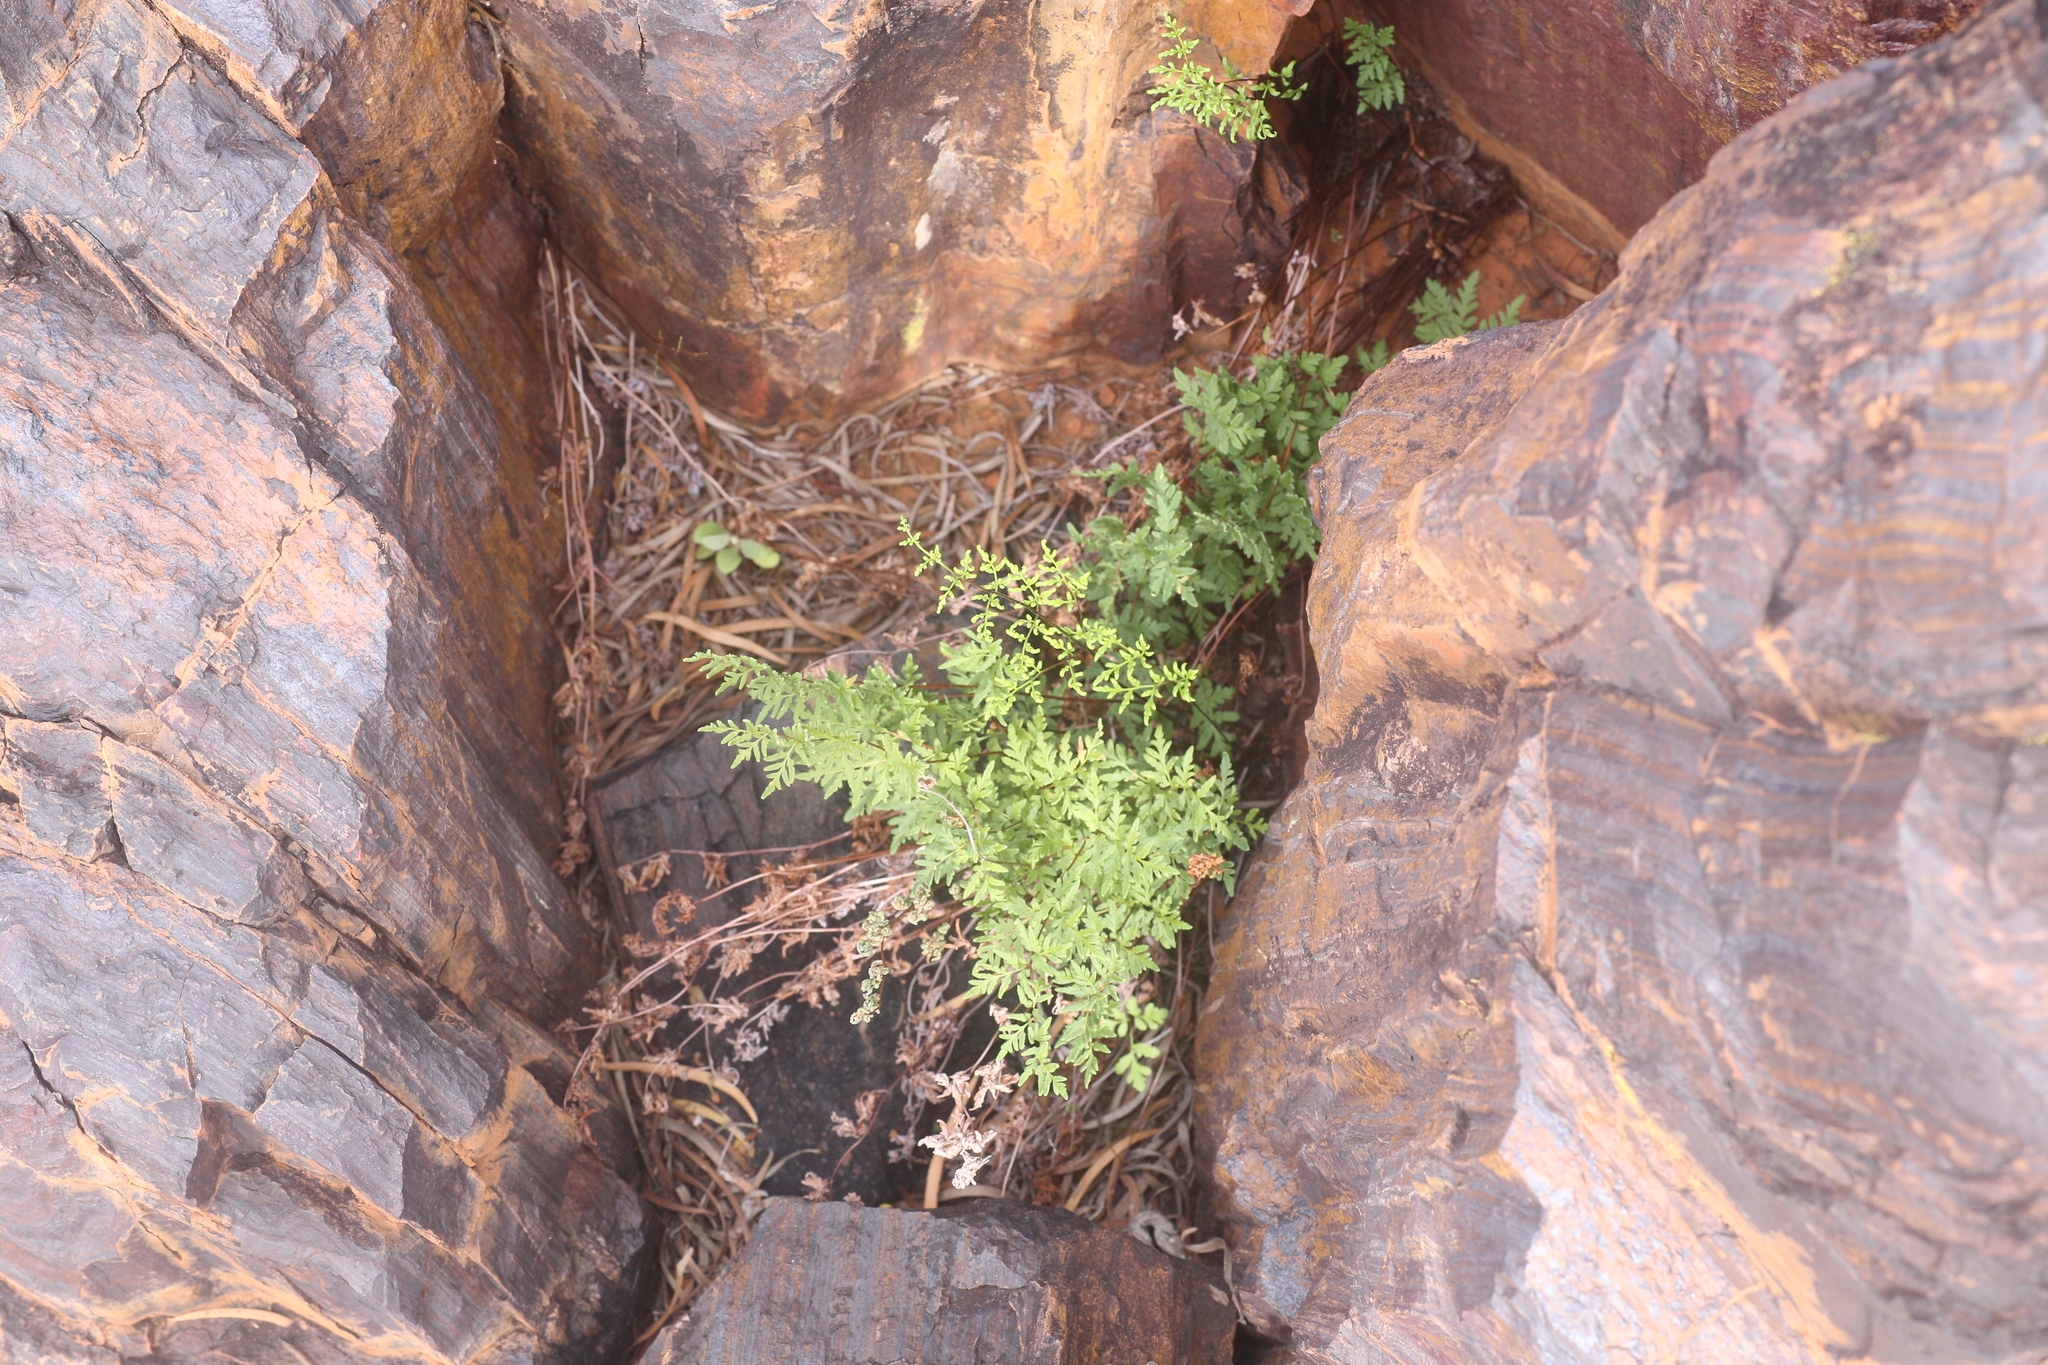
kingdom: Plantae
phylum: Tracheophyta
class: Polypodiopsida
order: Polypodiales
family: Pteridaceae
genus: Cheilanthes
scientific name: Cheilanthes sieberi
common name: Mulga fern
